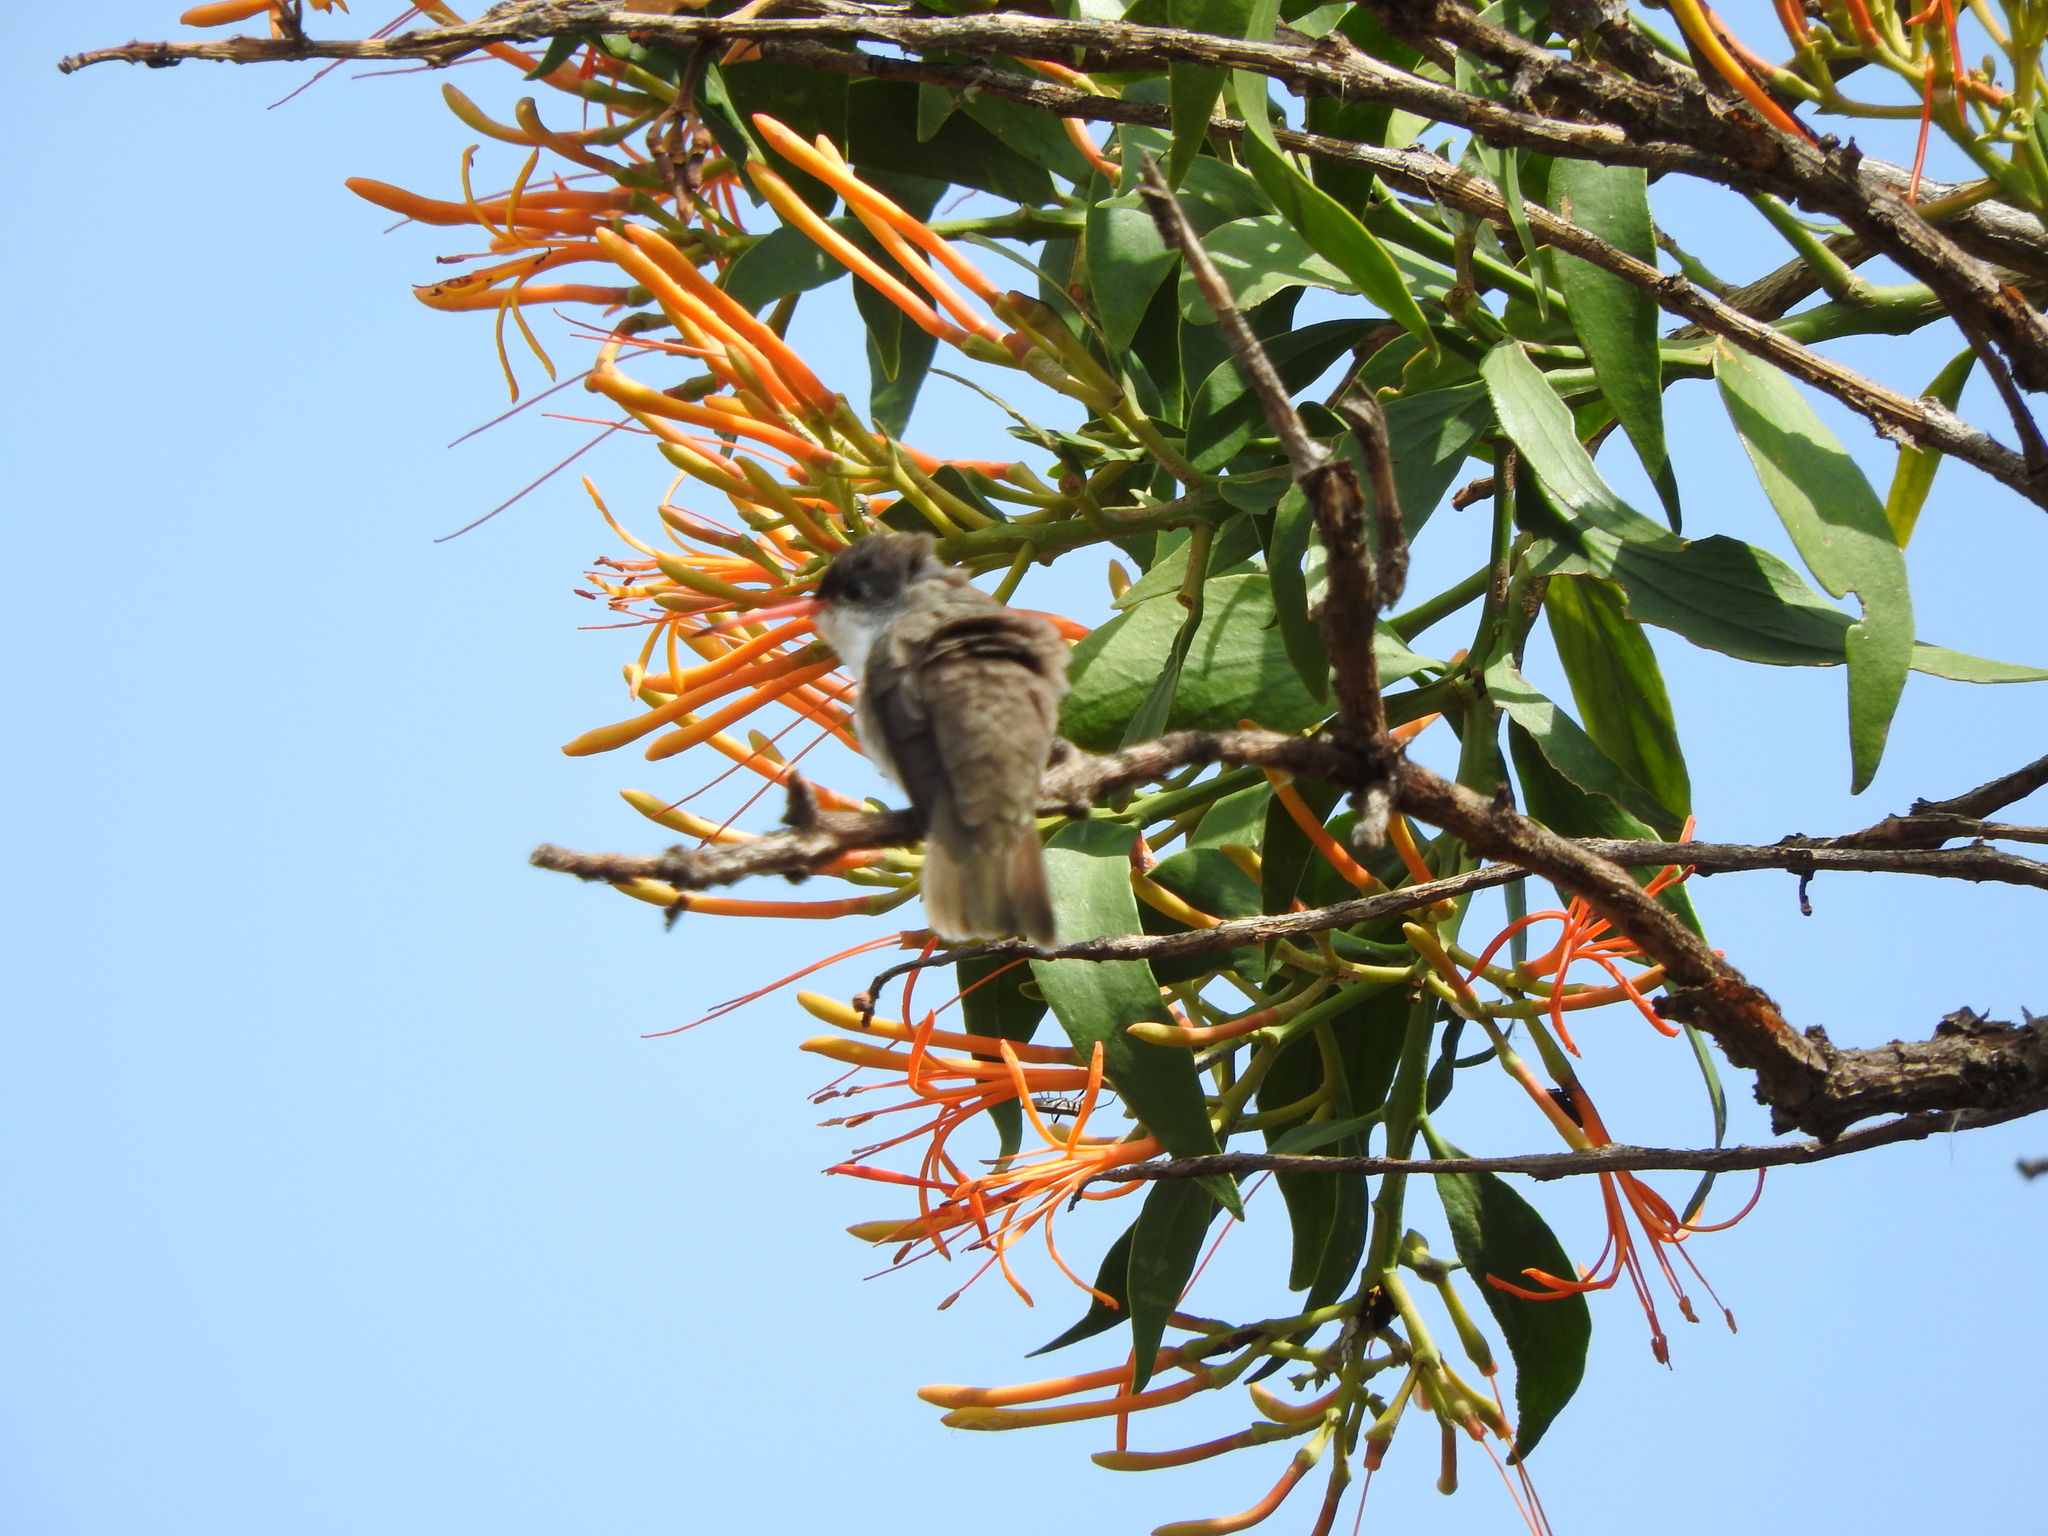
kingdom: Animalia
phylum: Chordata
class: Aves
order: Apodiformes
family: Trochilidae
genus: Leucolia
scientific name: Leucolia violiceps
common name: Violet-crowned hummingbird
